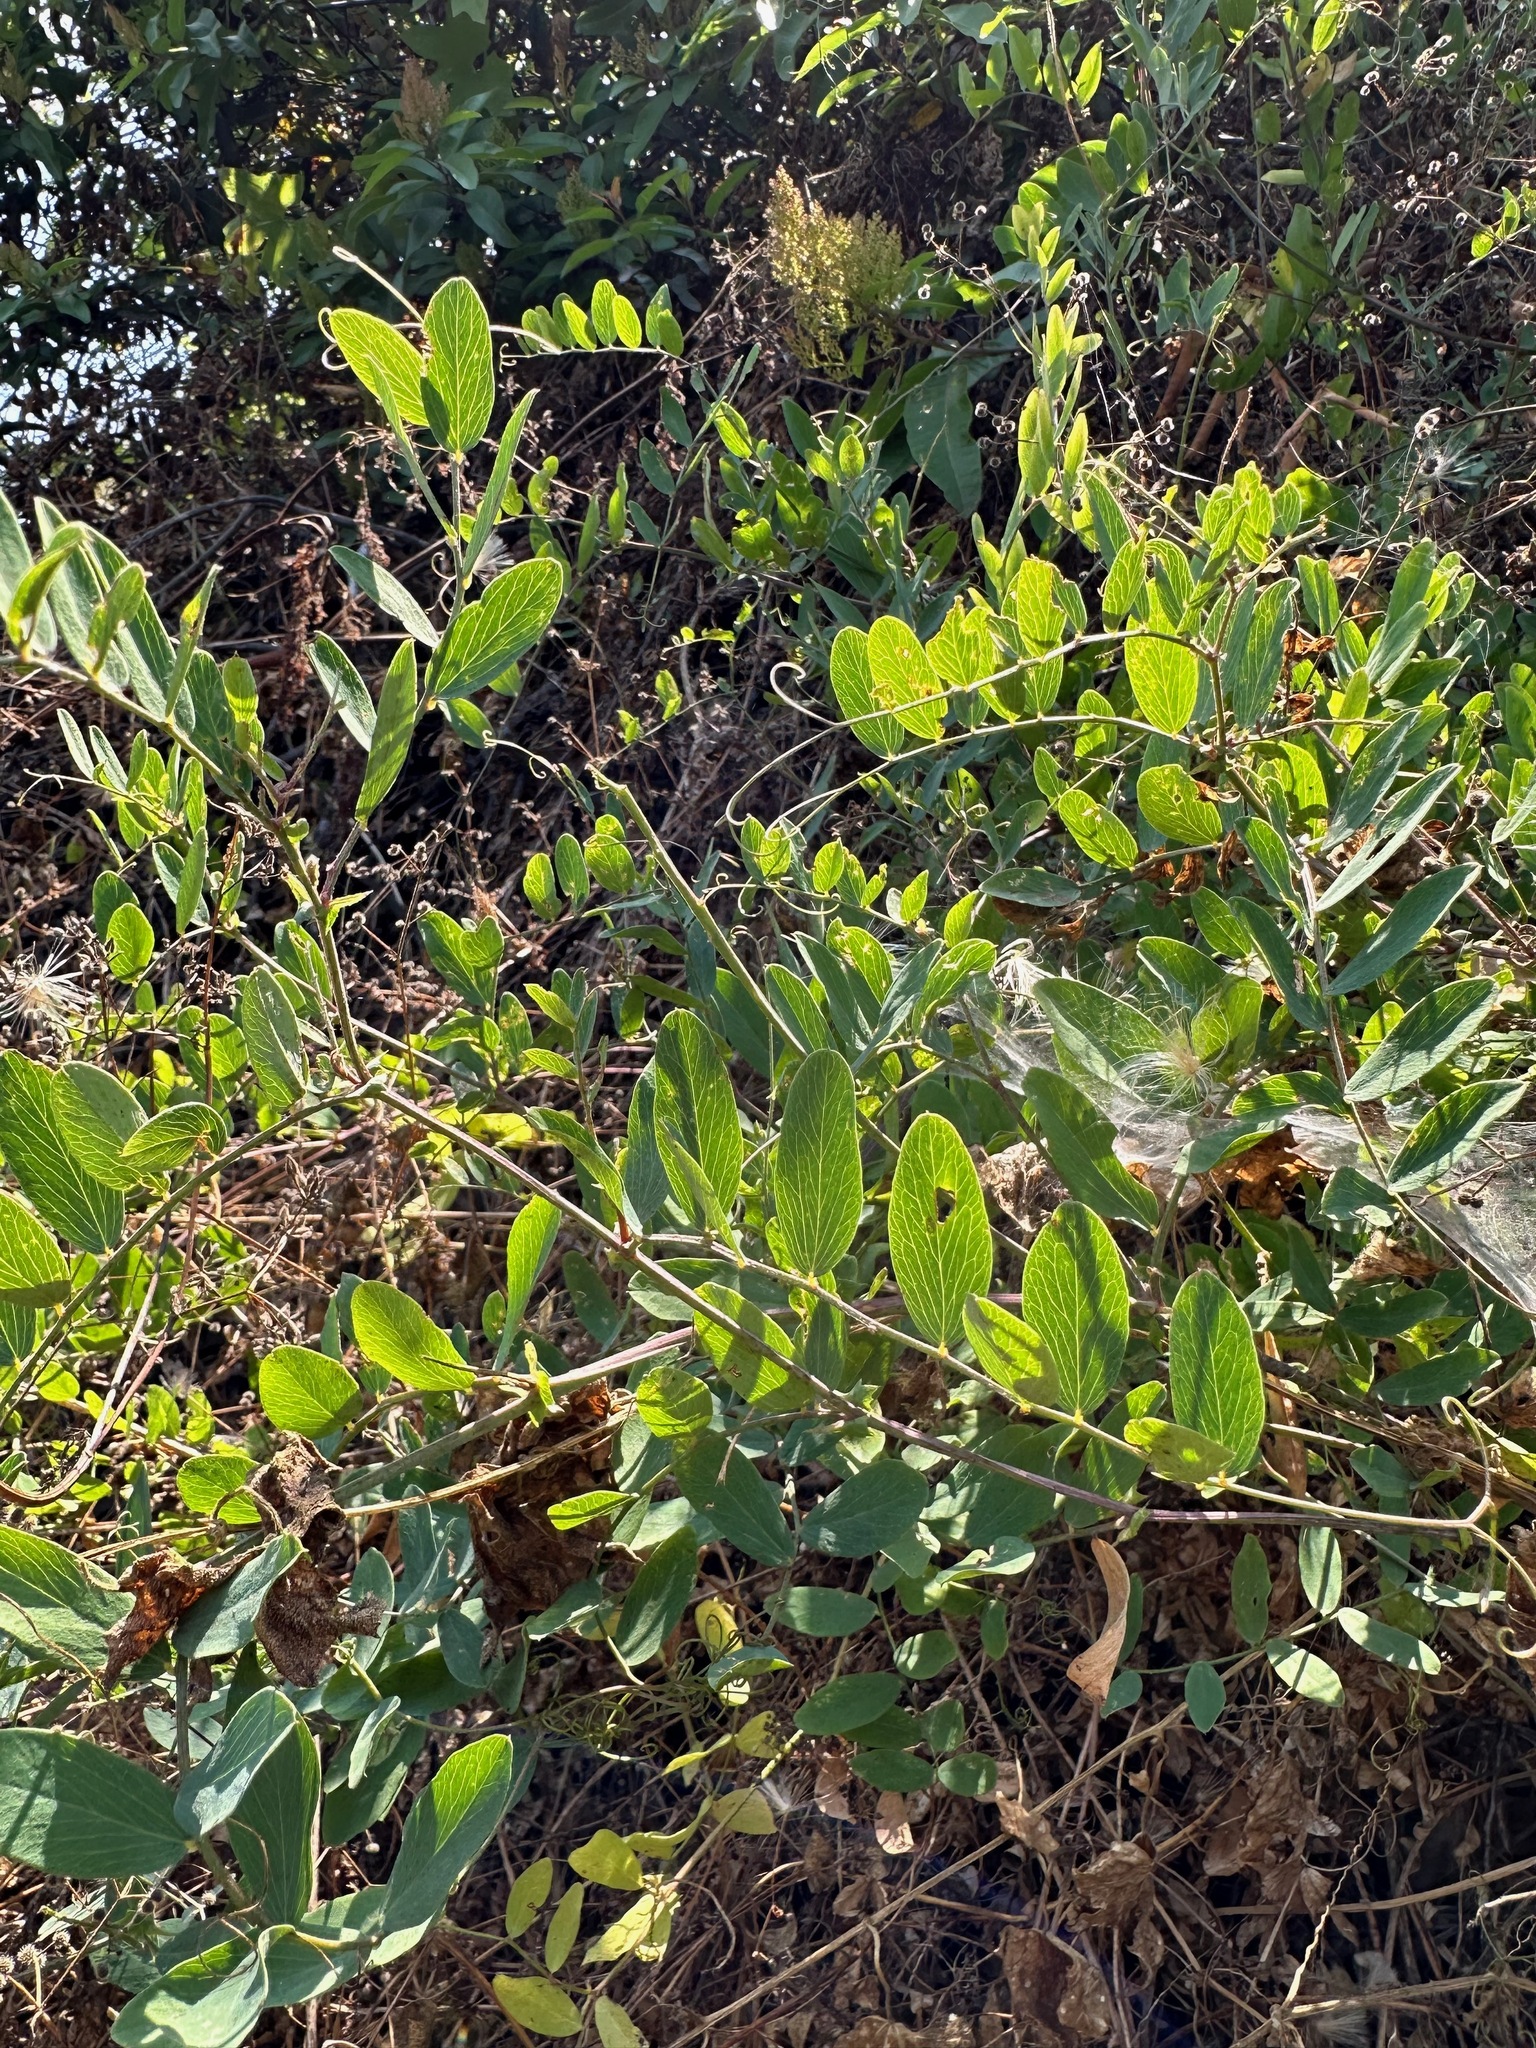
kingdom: Plantae
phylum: Tracheophyta
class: Magnoliopsida
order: Fabales
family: Fabaceae
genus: Lathyrus
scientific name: Lathyrus vestitus
